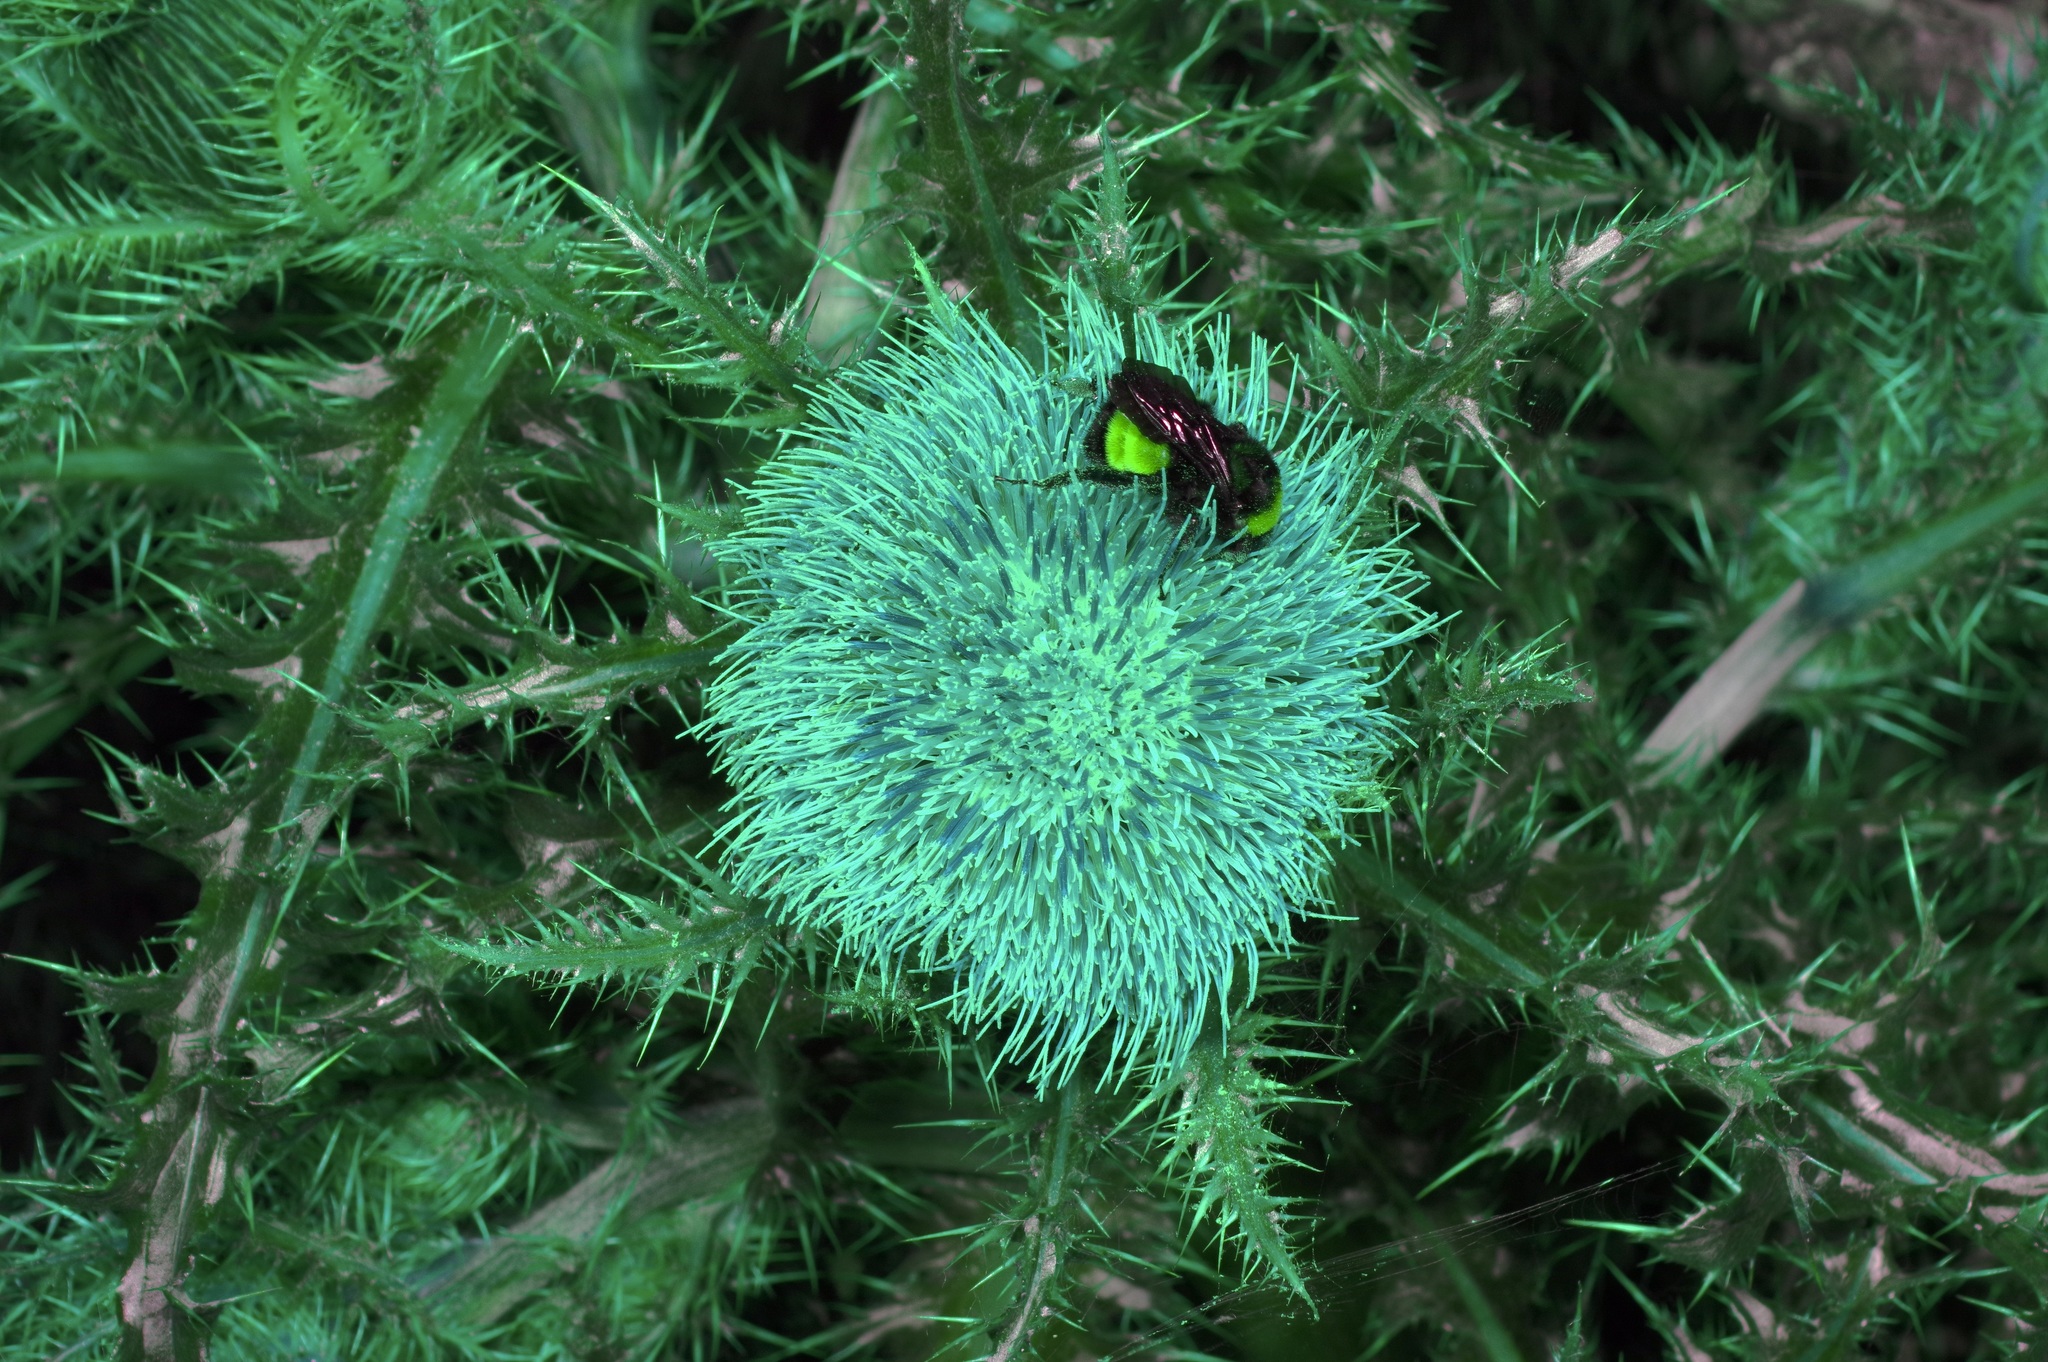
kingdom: Animalia
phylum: Arthropoda
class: Insecta
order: Hymenoptera
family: Apidae
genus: Bombus
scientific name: Bombus pensylvanicus
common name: Bumble bee
